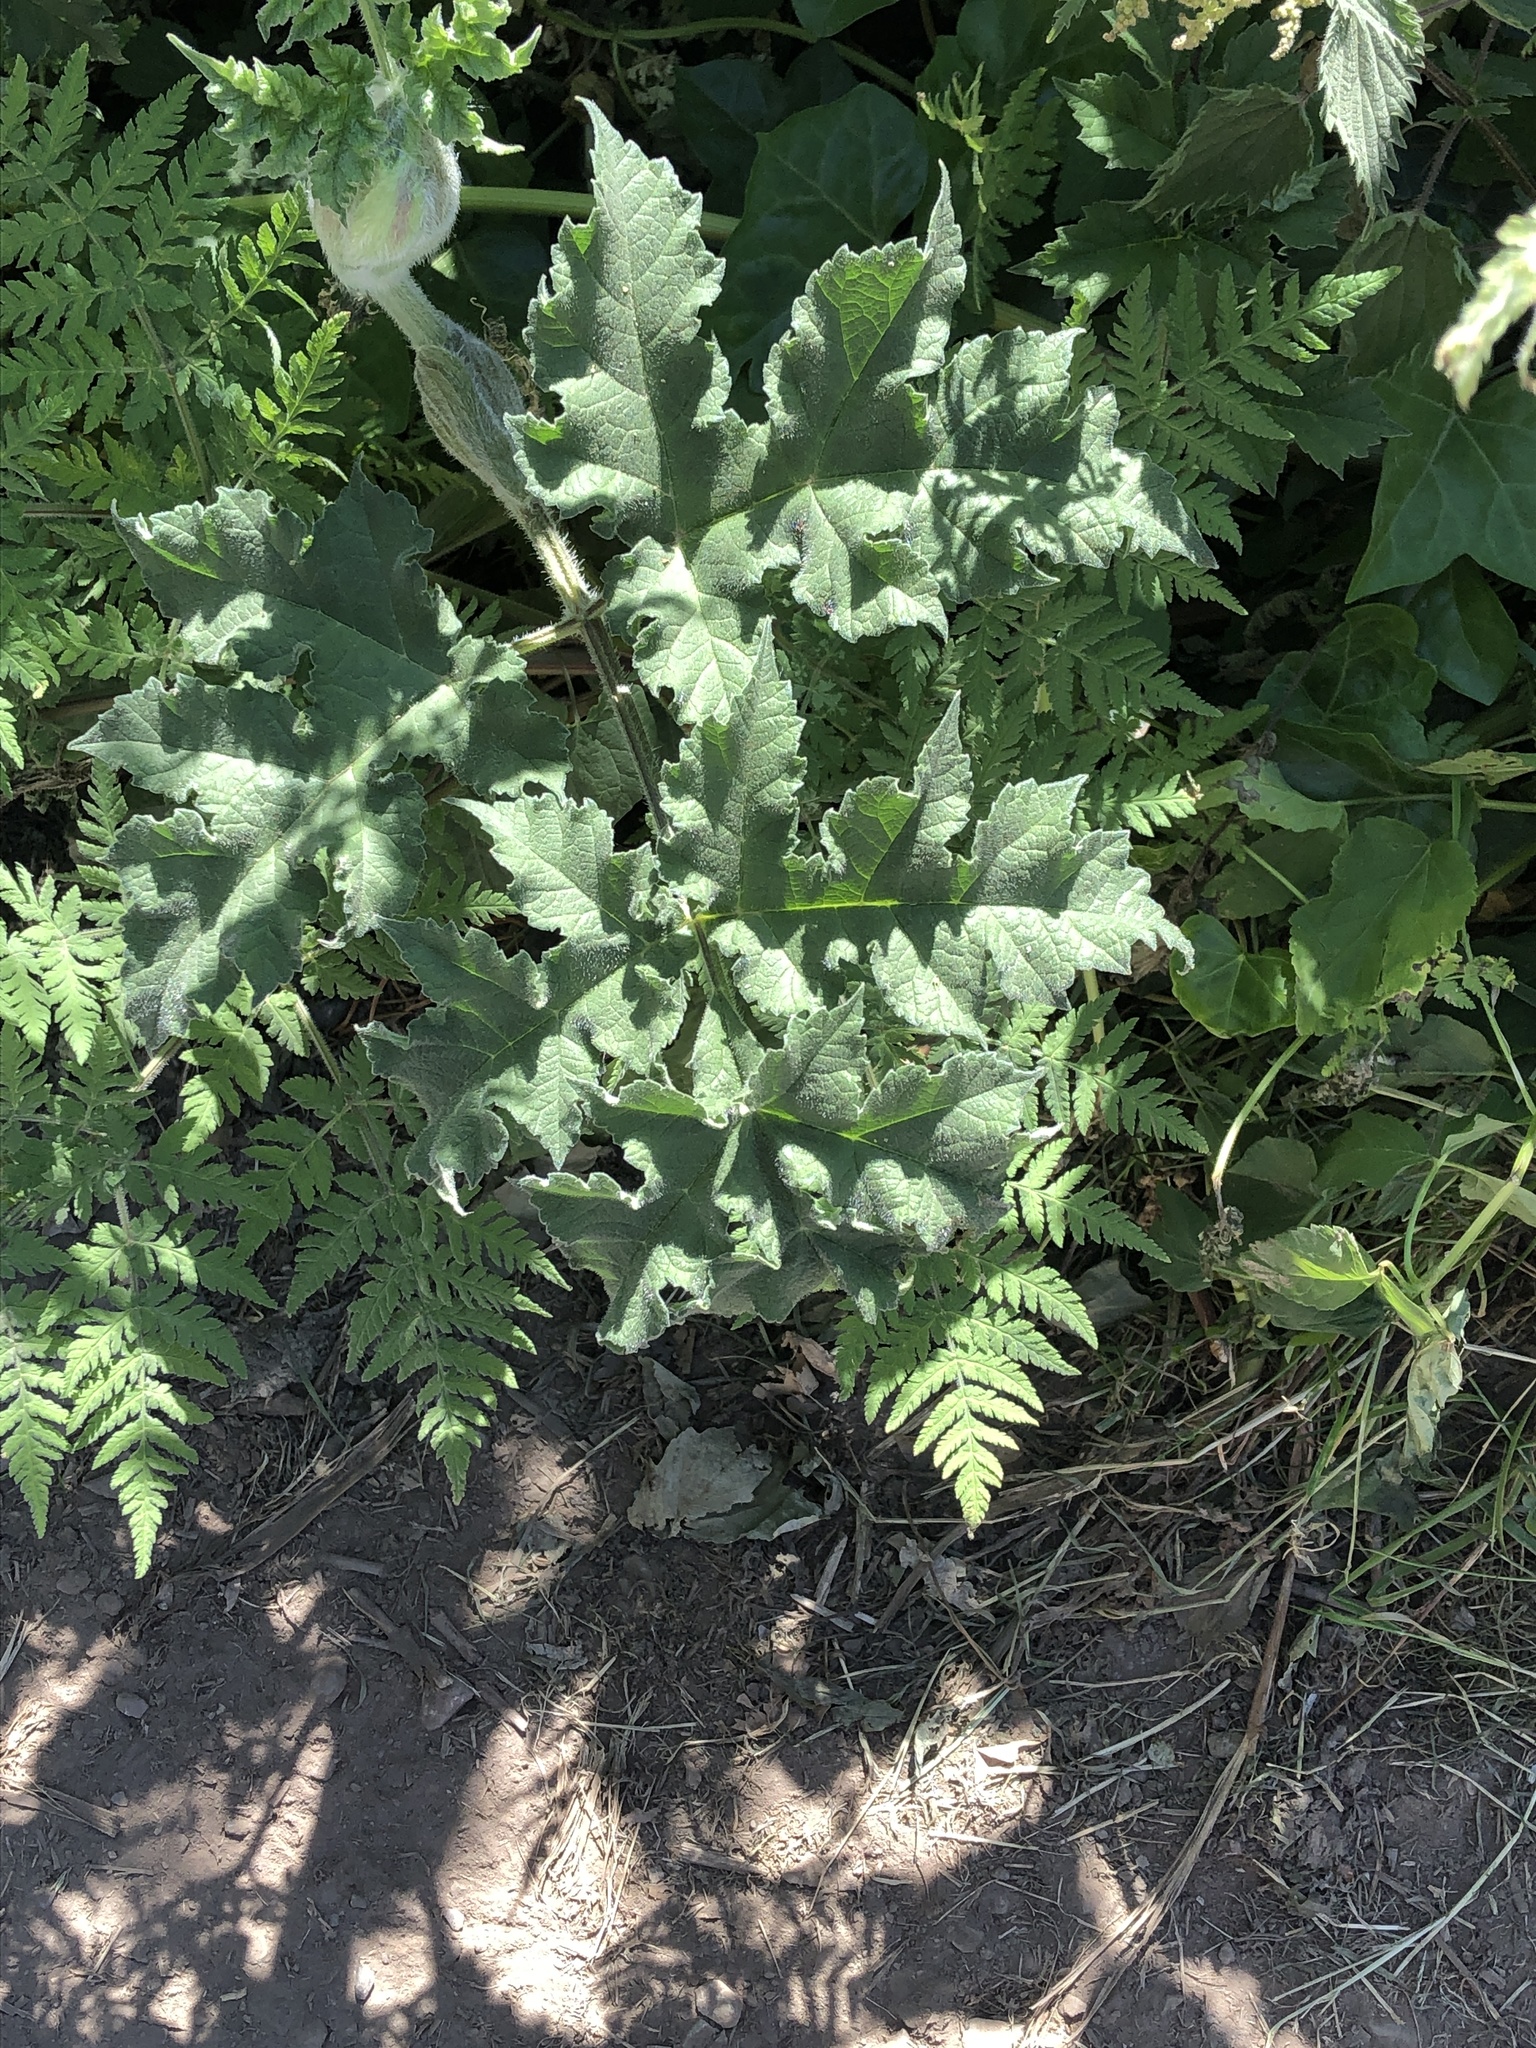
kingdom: Plantae
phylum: Tracheophyta
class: Magnoliopsida
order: Apiales
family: Apiaceae
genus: Heracleum
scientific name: Heracleum sphondylium
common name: Hogweed
